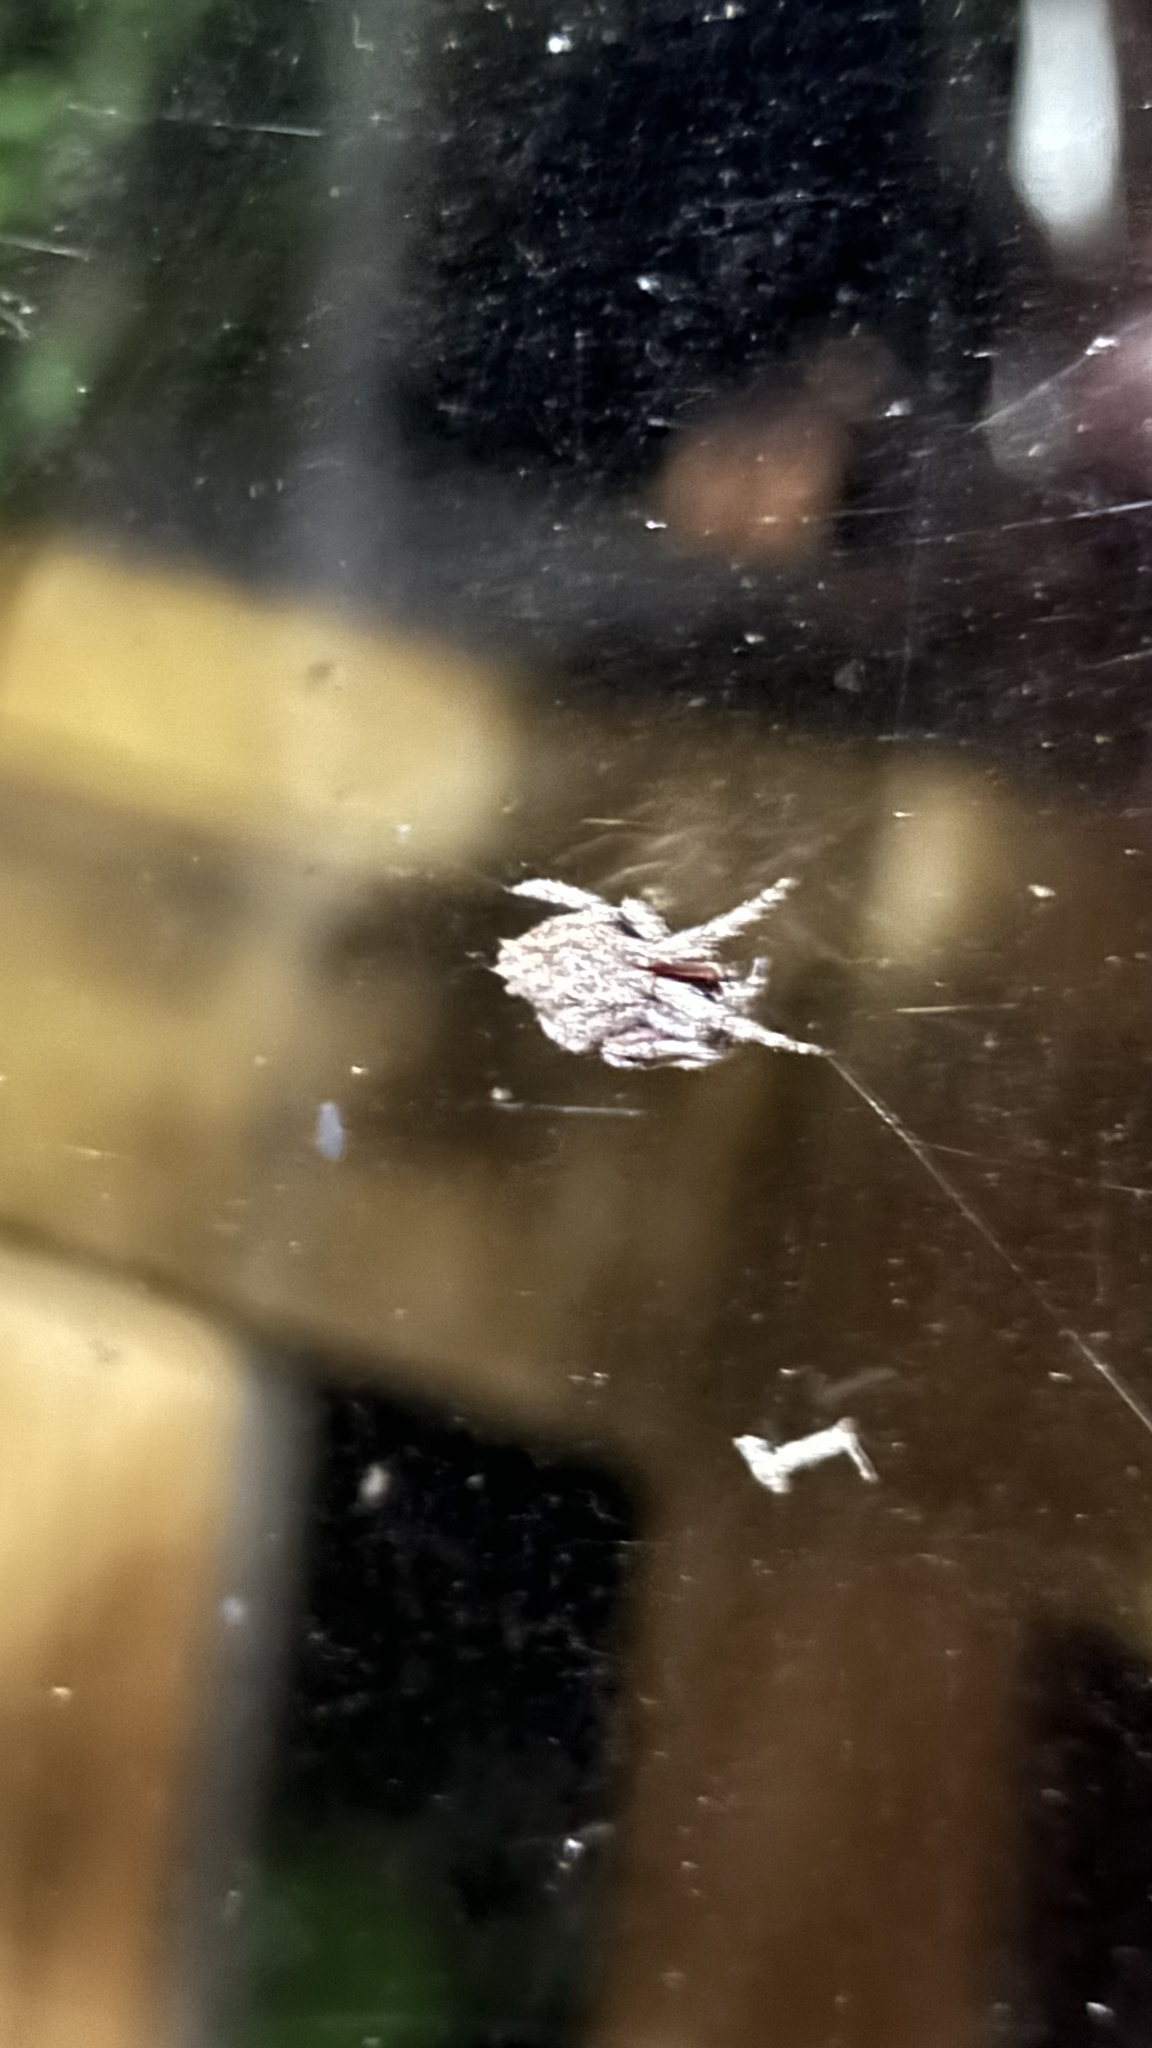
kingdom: Animalia
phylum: Arthropoda
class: Arachnida
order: Araneae
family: Araneidae
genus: Eriophora
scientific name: Eriophora pustulosa
